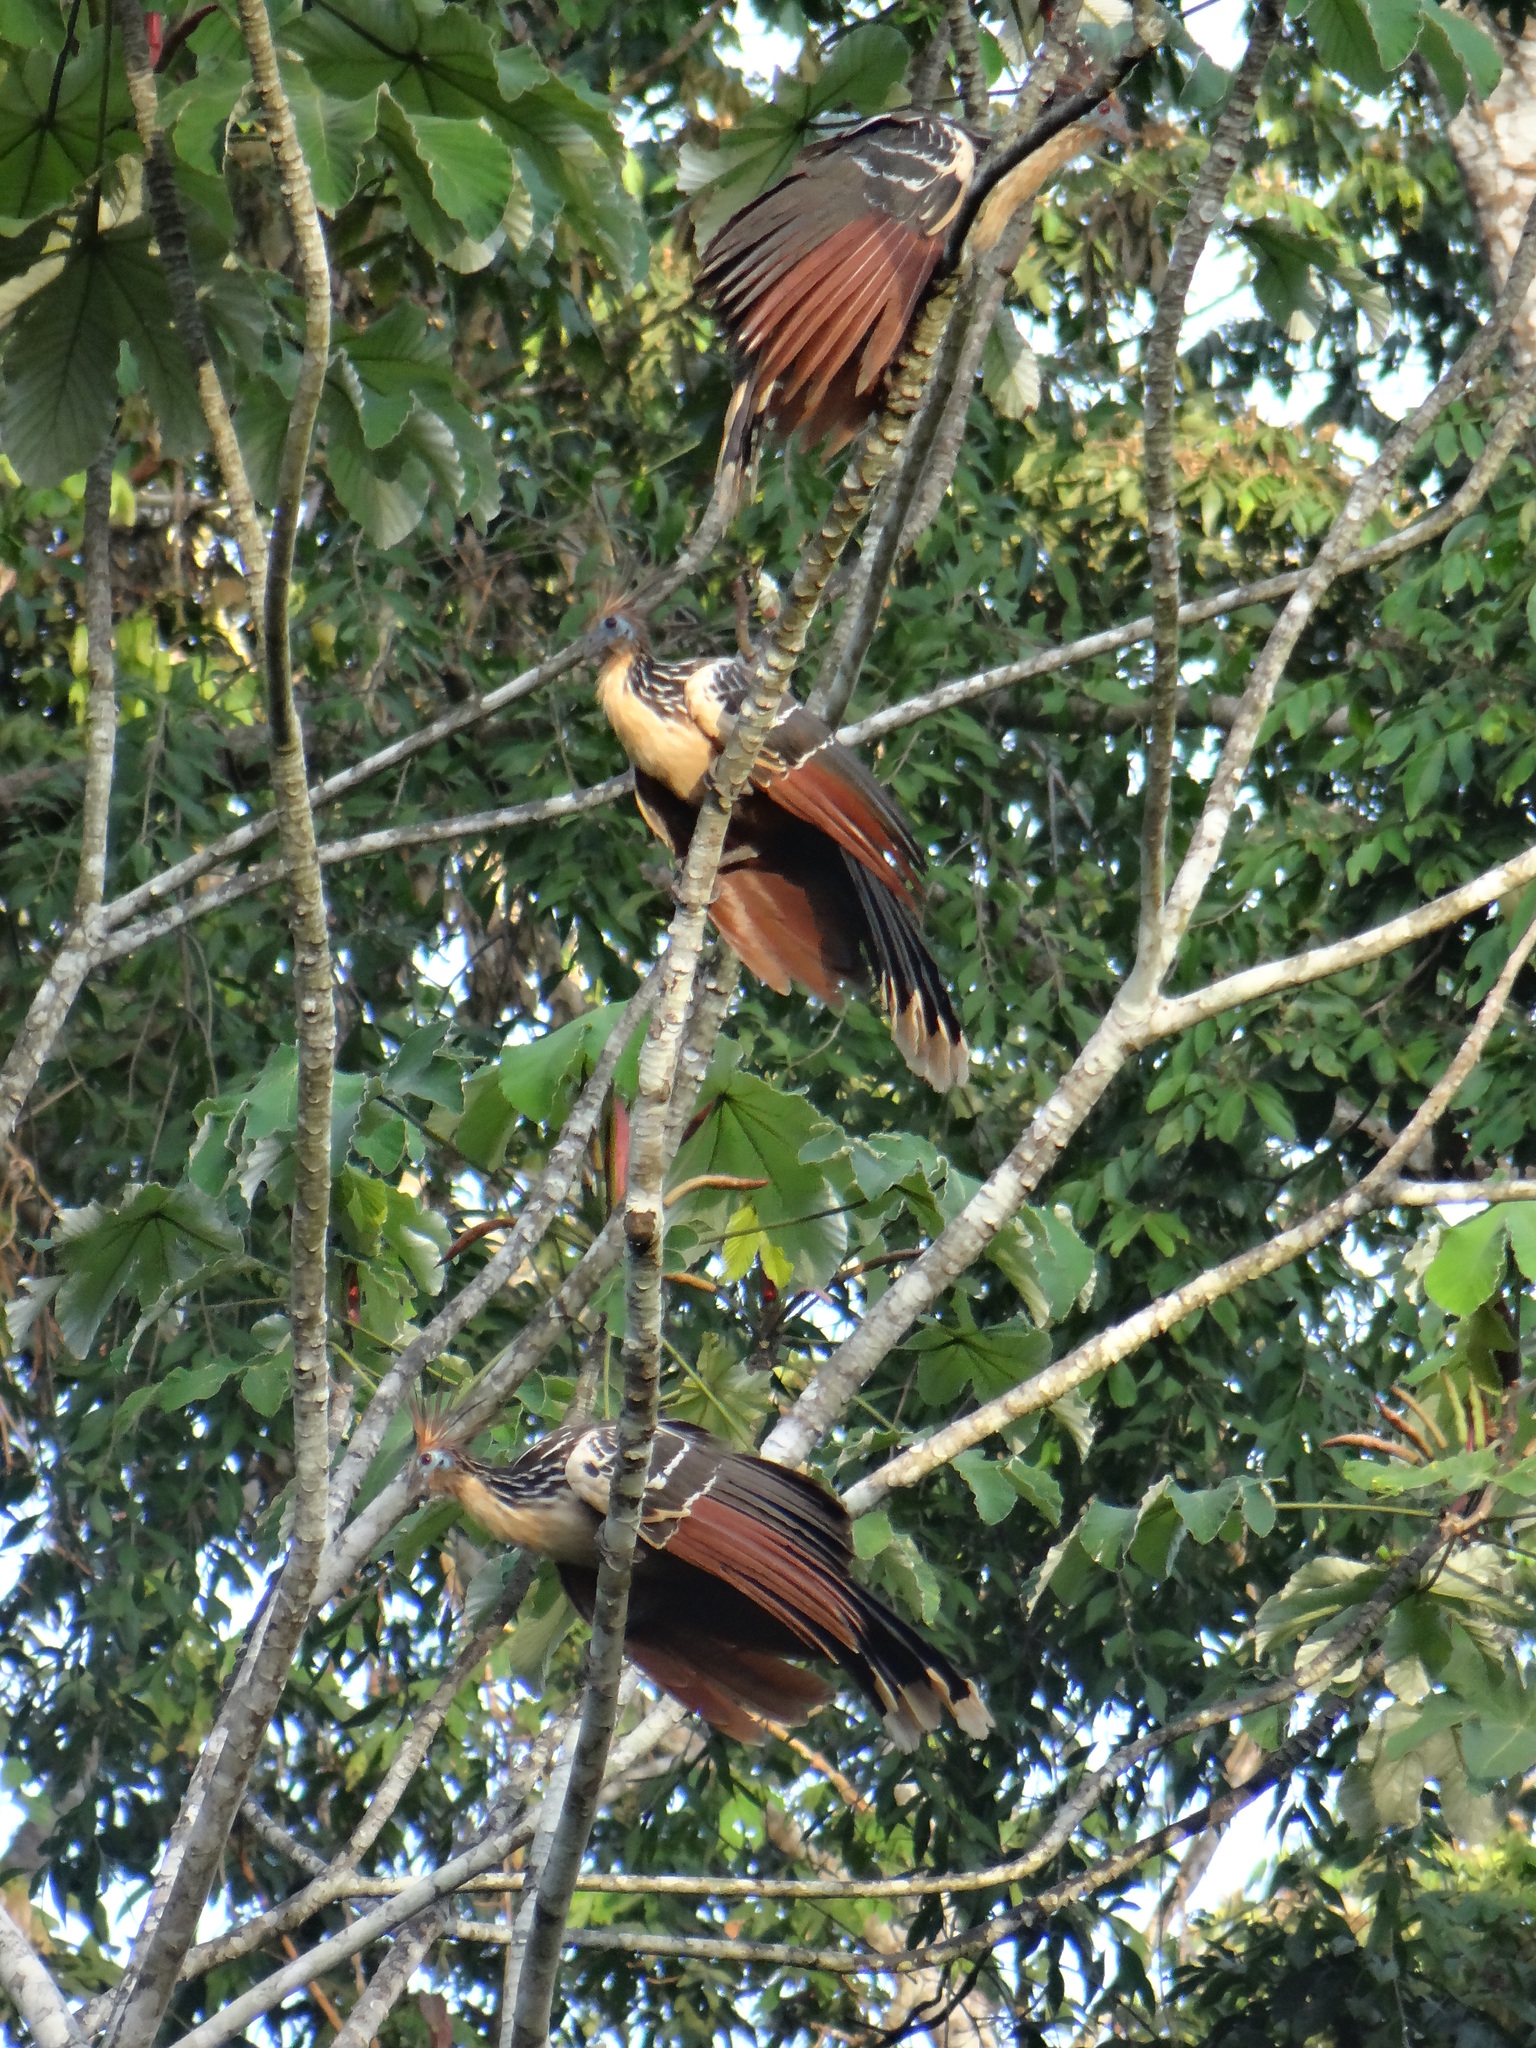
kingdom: Animalia
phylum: Chordata
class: Aves
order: Opisthocomiformes
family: Opisthocomidae
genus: Opisthocomus
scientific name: Opisthocomus hoazin
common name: Hoatzin
